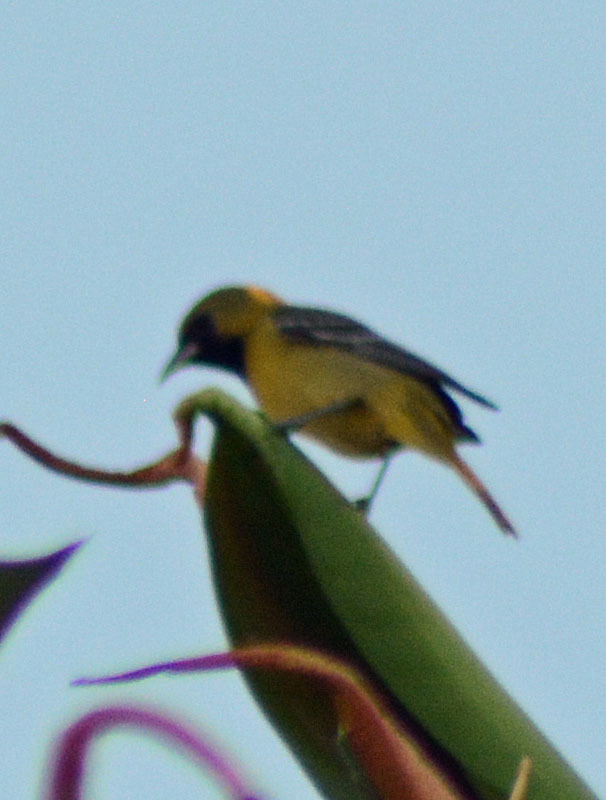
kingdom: Animalia
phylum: Chordata
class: Aves
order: Passeriformes
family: Icteridae
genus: Icterus
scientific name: Icterus cucullatus
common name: Hooded oriole
